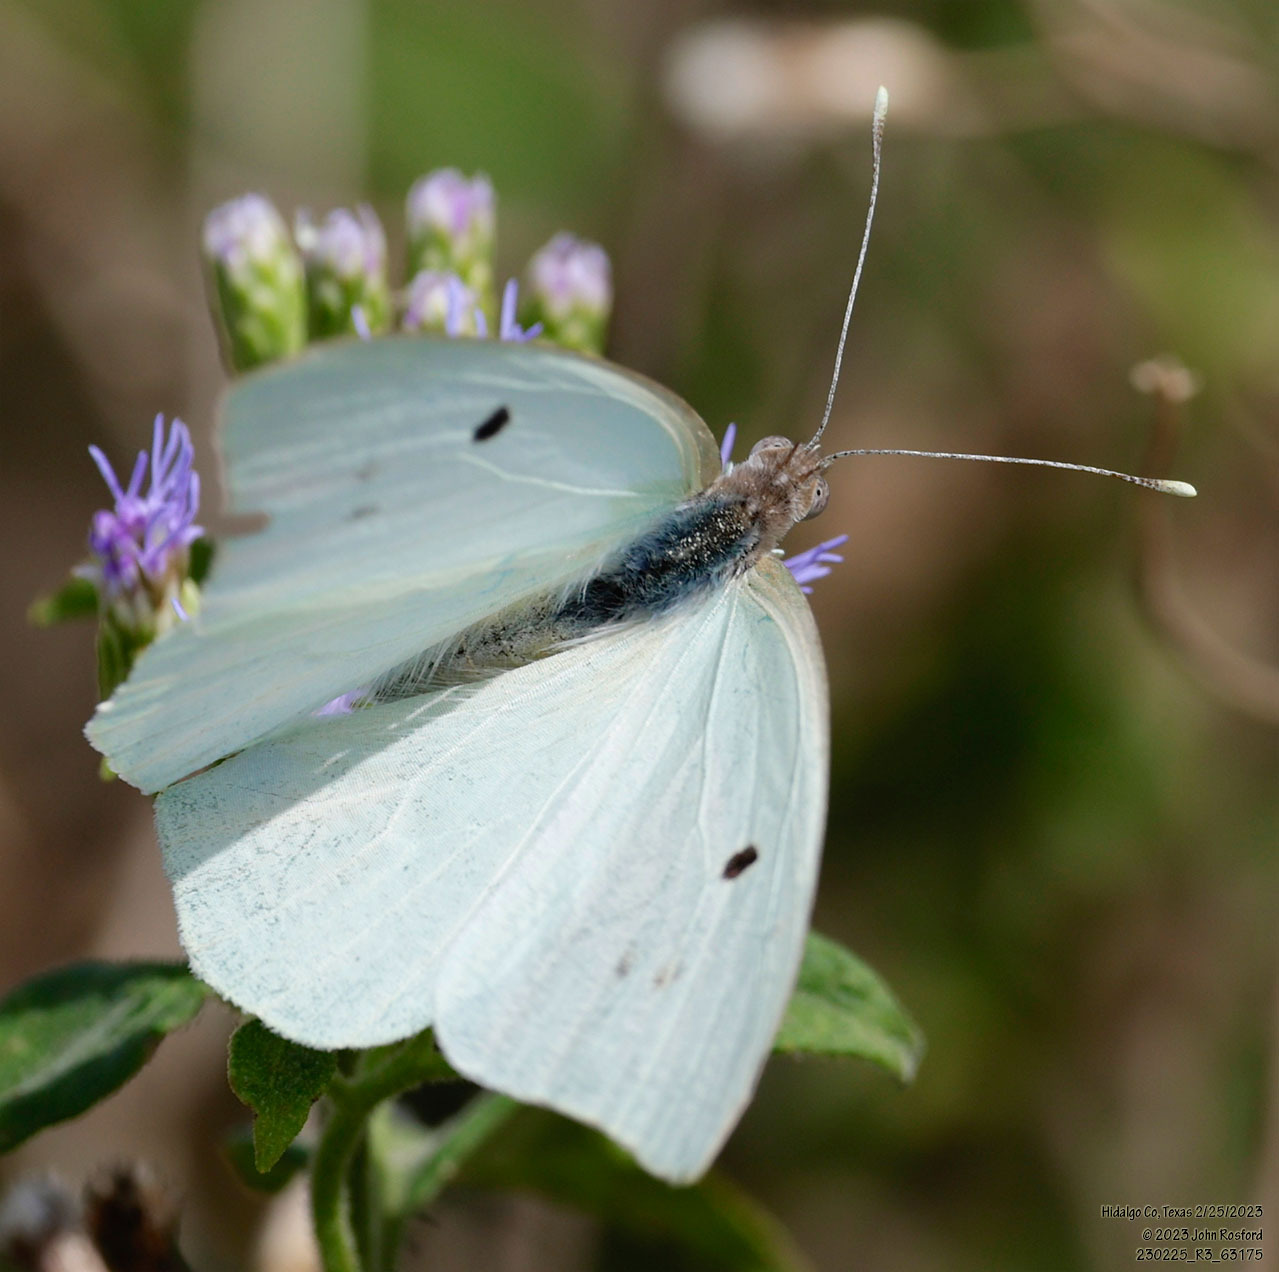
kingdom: Animalia
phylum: Arthropoda
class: Insecta
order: Lepidoptera
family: Pieridae
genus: Ganyra
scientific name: Ganyra josephina
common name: Giant white
